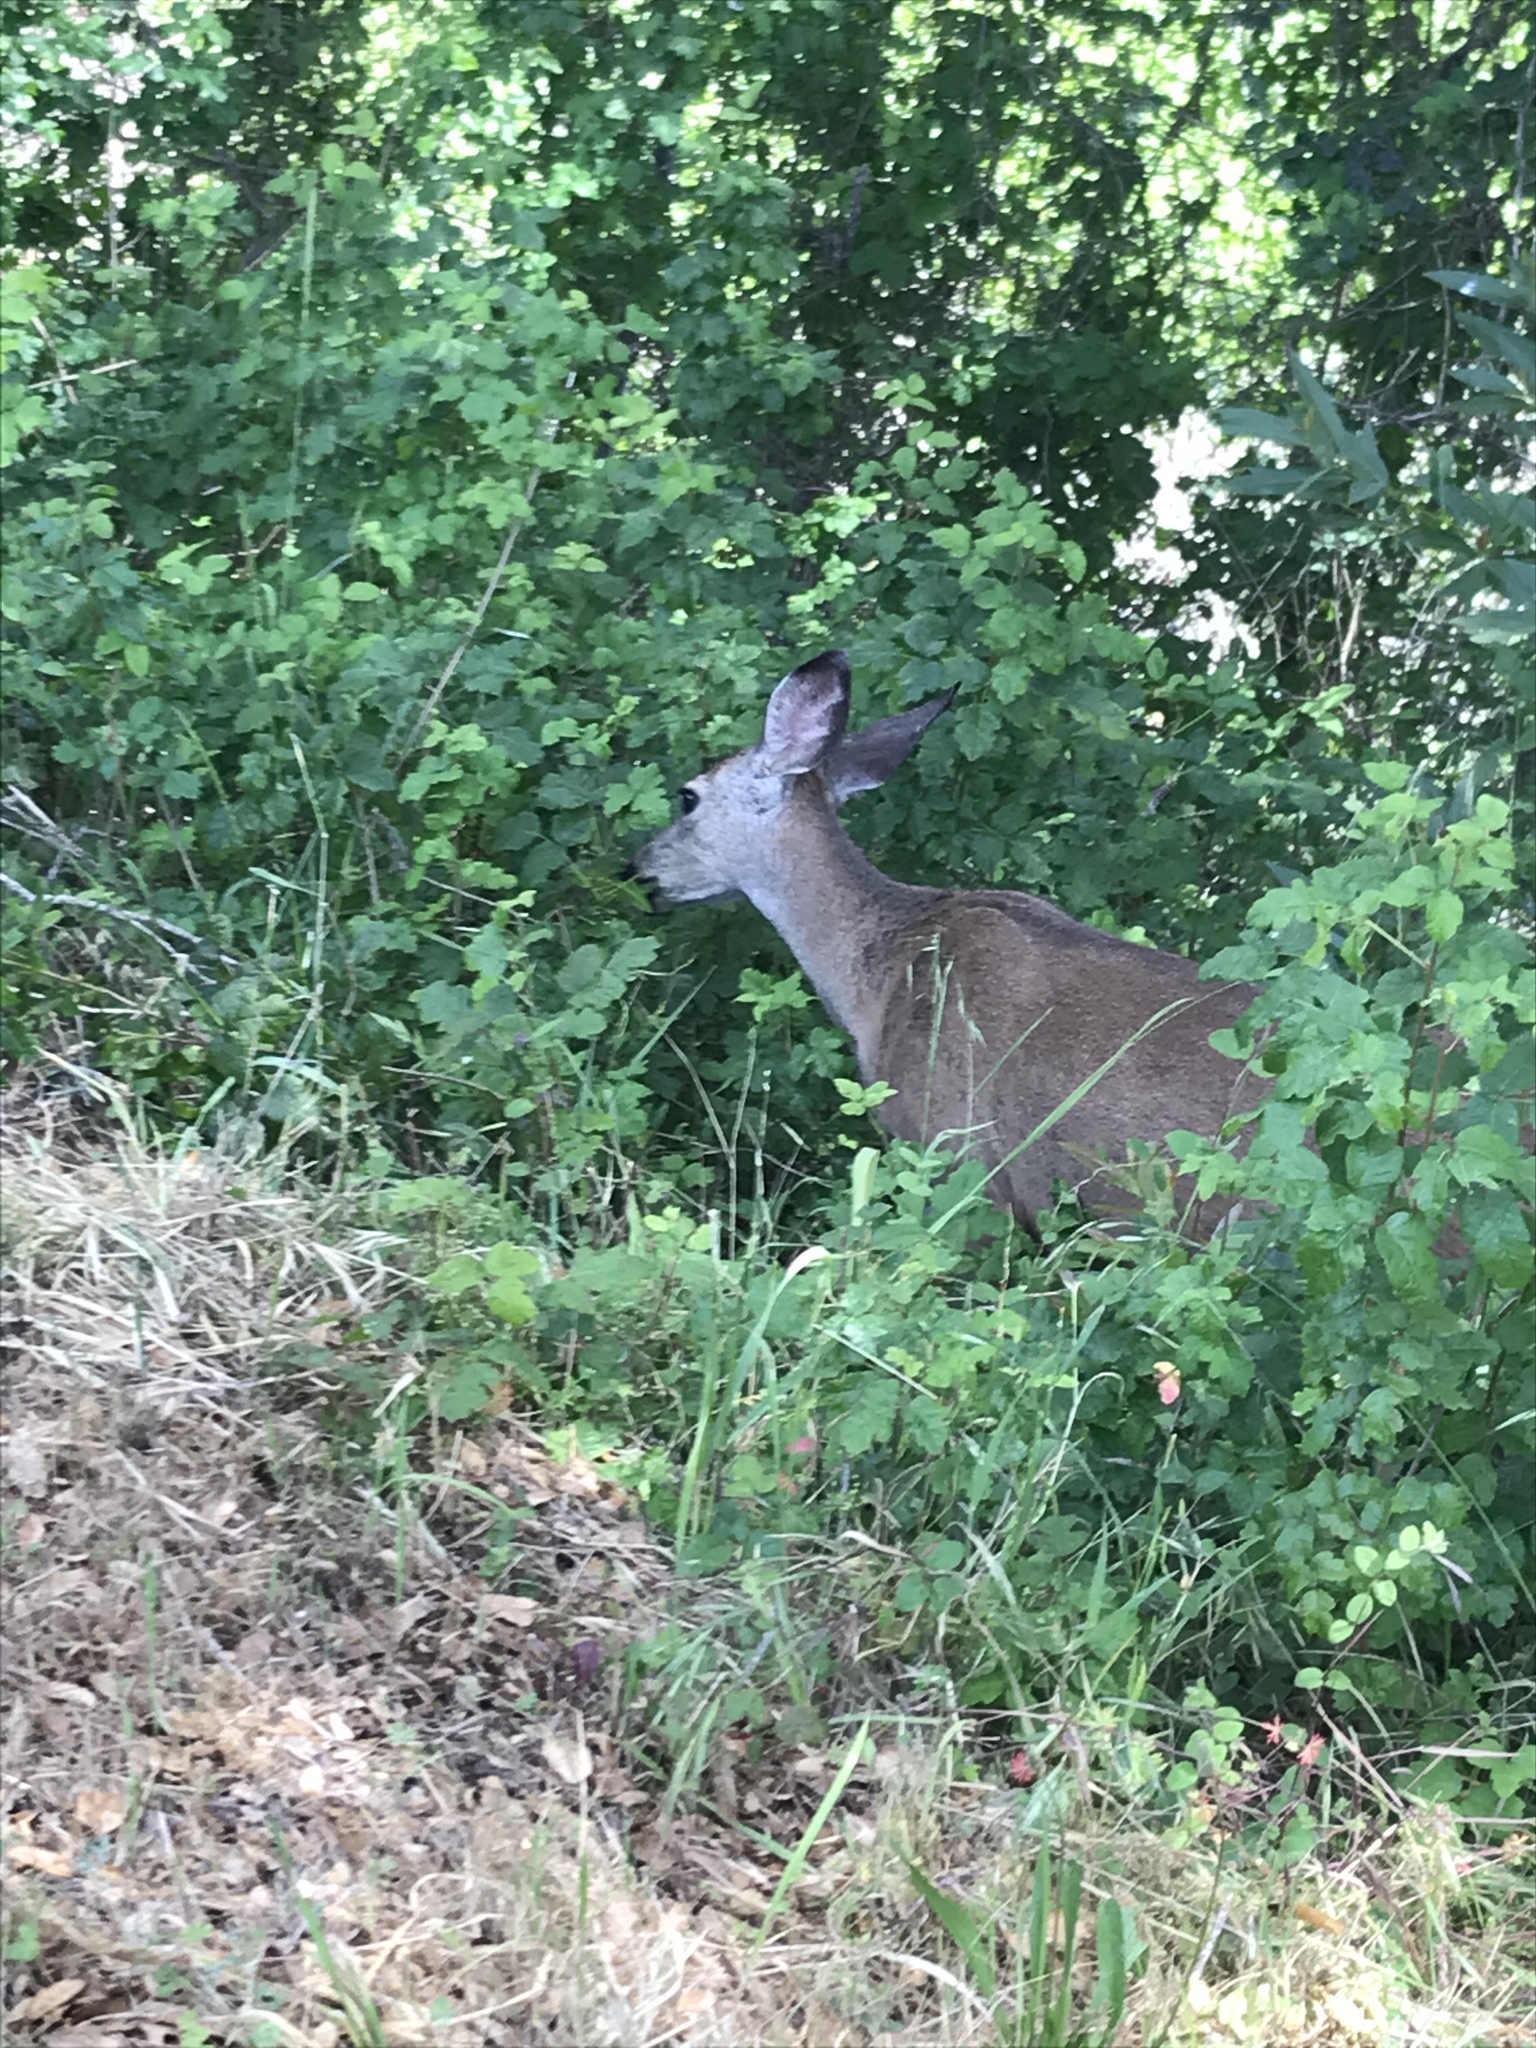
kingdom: Animalia
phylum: Chordata
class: Mammalia
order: Artiodactyla
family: Cervidae
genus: Odocoileus
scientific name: Odocoileus hemionus
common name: Mule deer
